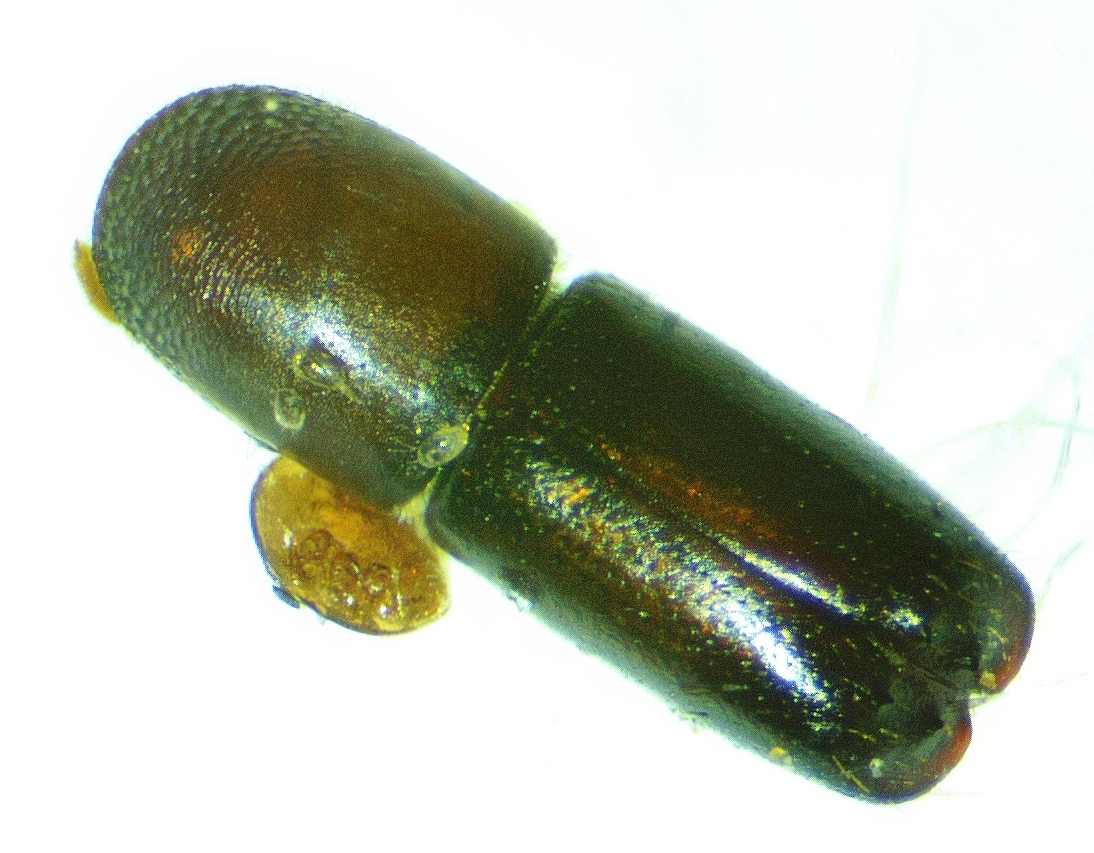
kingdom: Animalia
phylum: Arthropoda
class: Insecta
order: Coleoptera
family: Curculionidae
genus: Monarthrum
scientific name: Monarthrum mali
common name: Bark beetle
